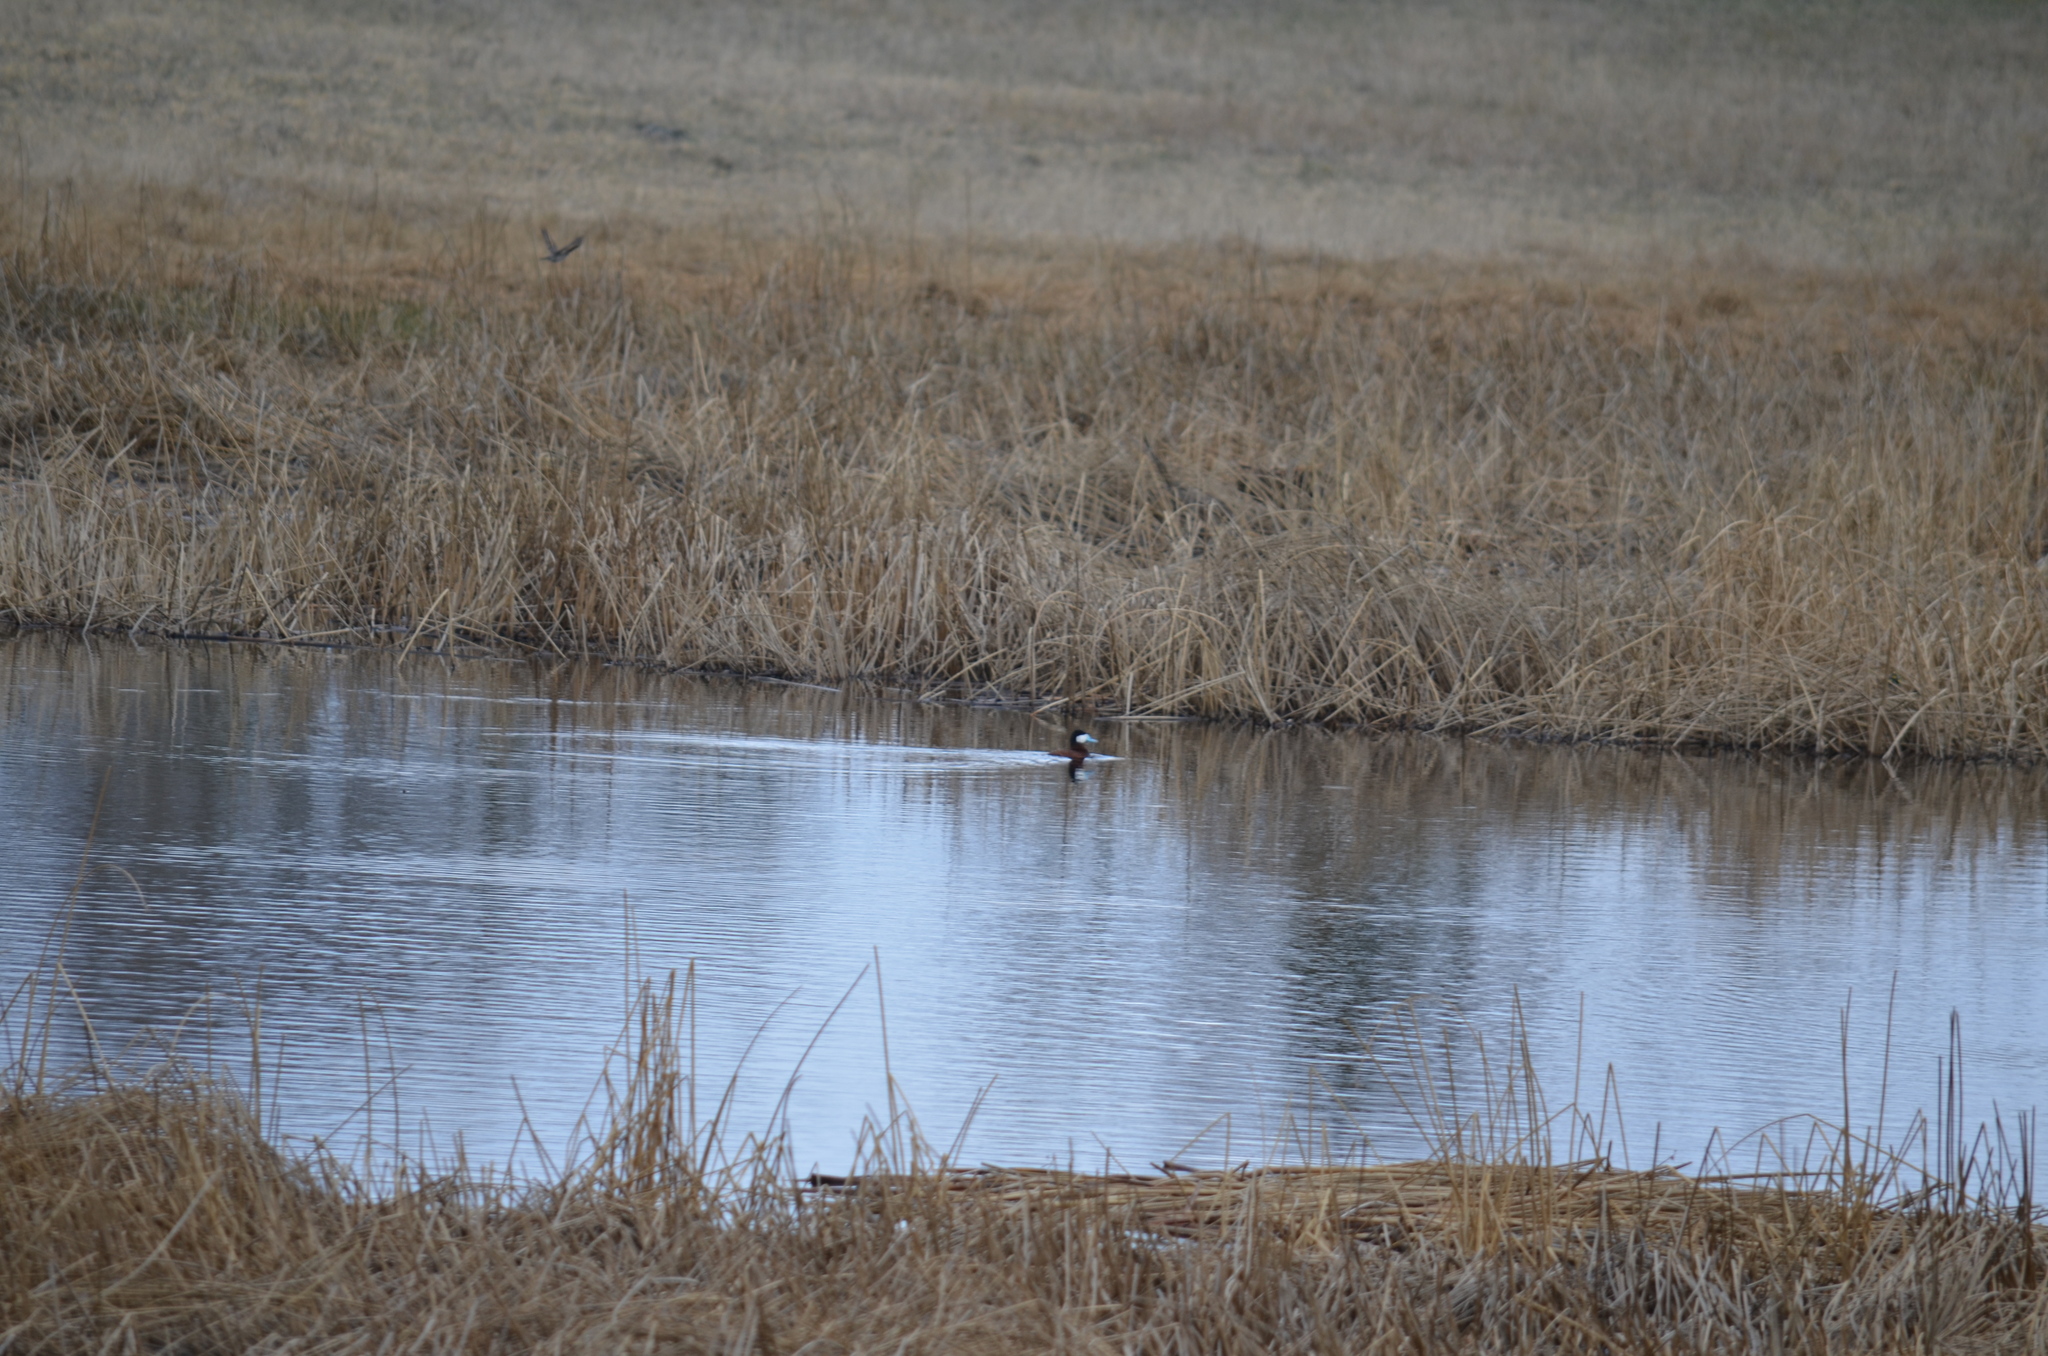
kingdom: Animalia
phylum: Chordata
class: Aves
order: Anseriformes
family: Anatidae
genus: Oxyura
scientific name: Oxyura jamaicensis
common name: Ruddy duck
